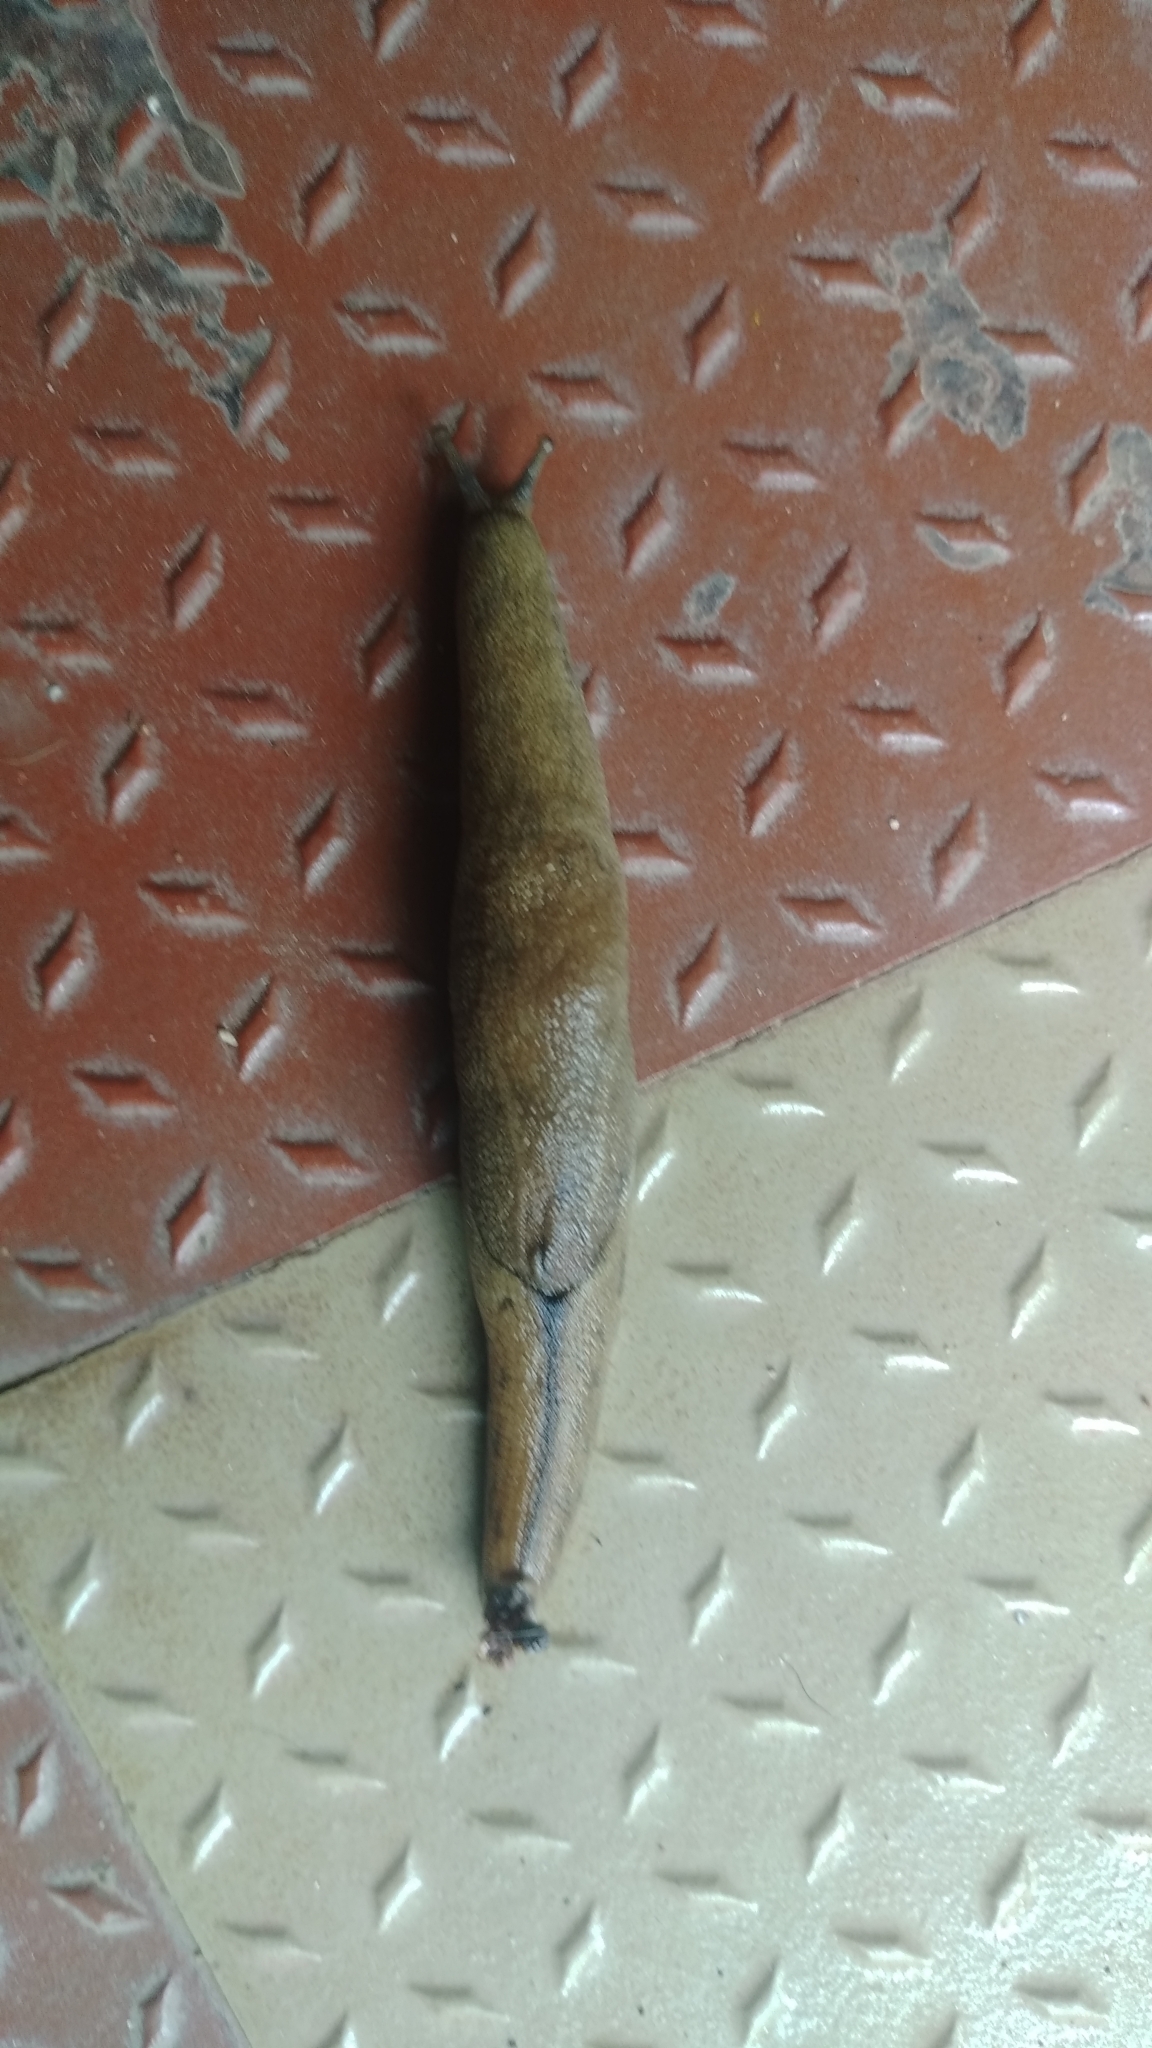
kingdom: Animalia
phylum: Mollusca
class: Gastropoda
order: Stylommatophora
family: Ariophantidae
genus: Mariaella
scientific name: Mariaella dussumieri
